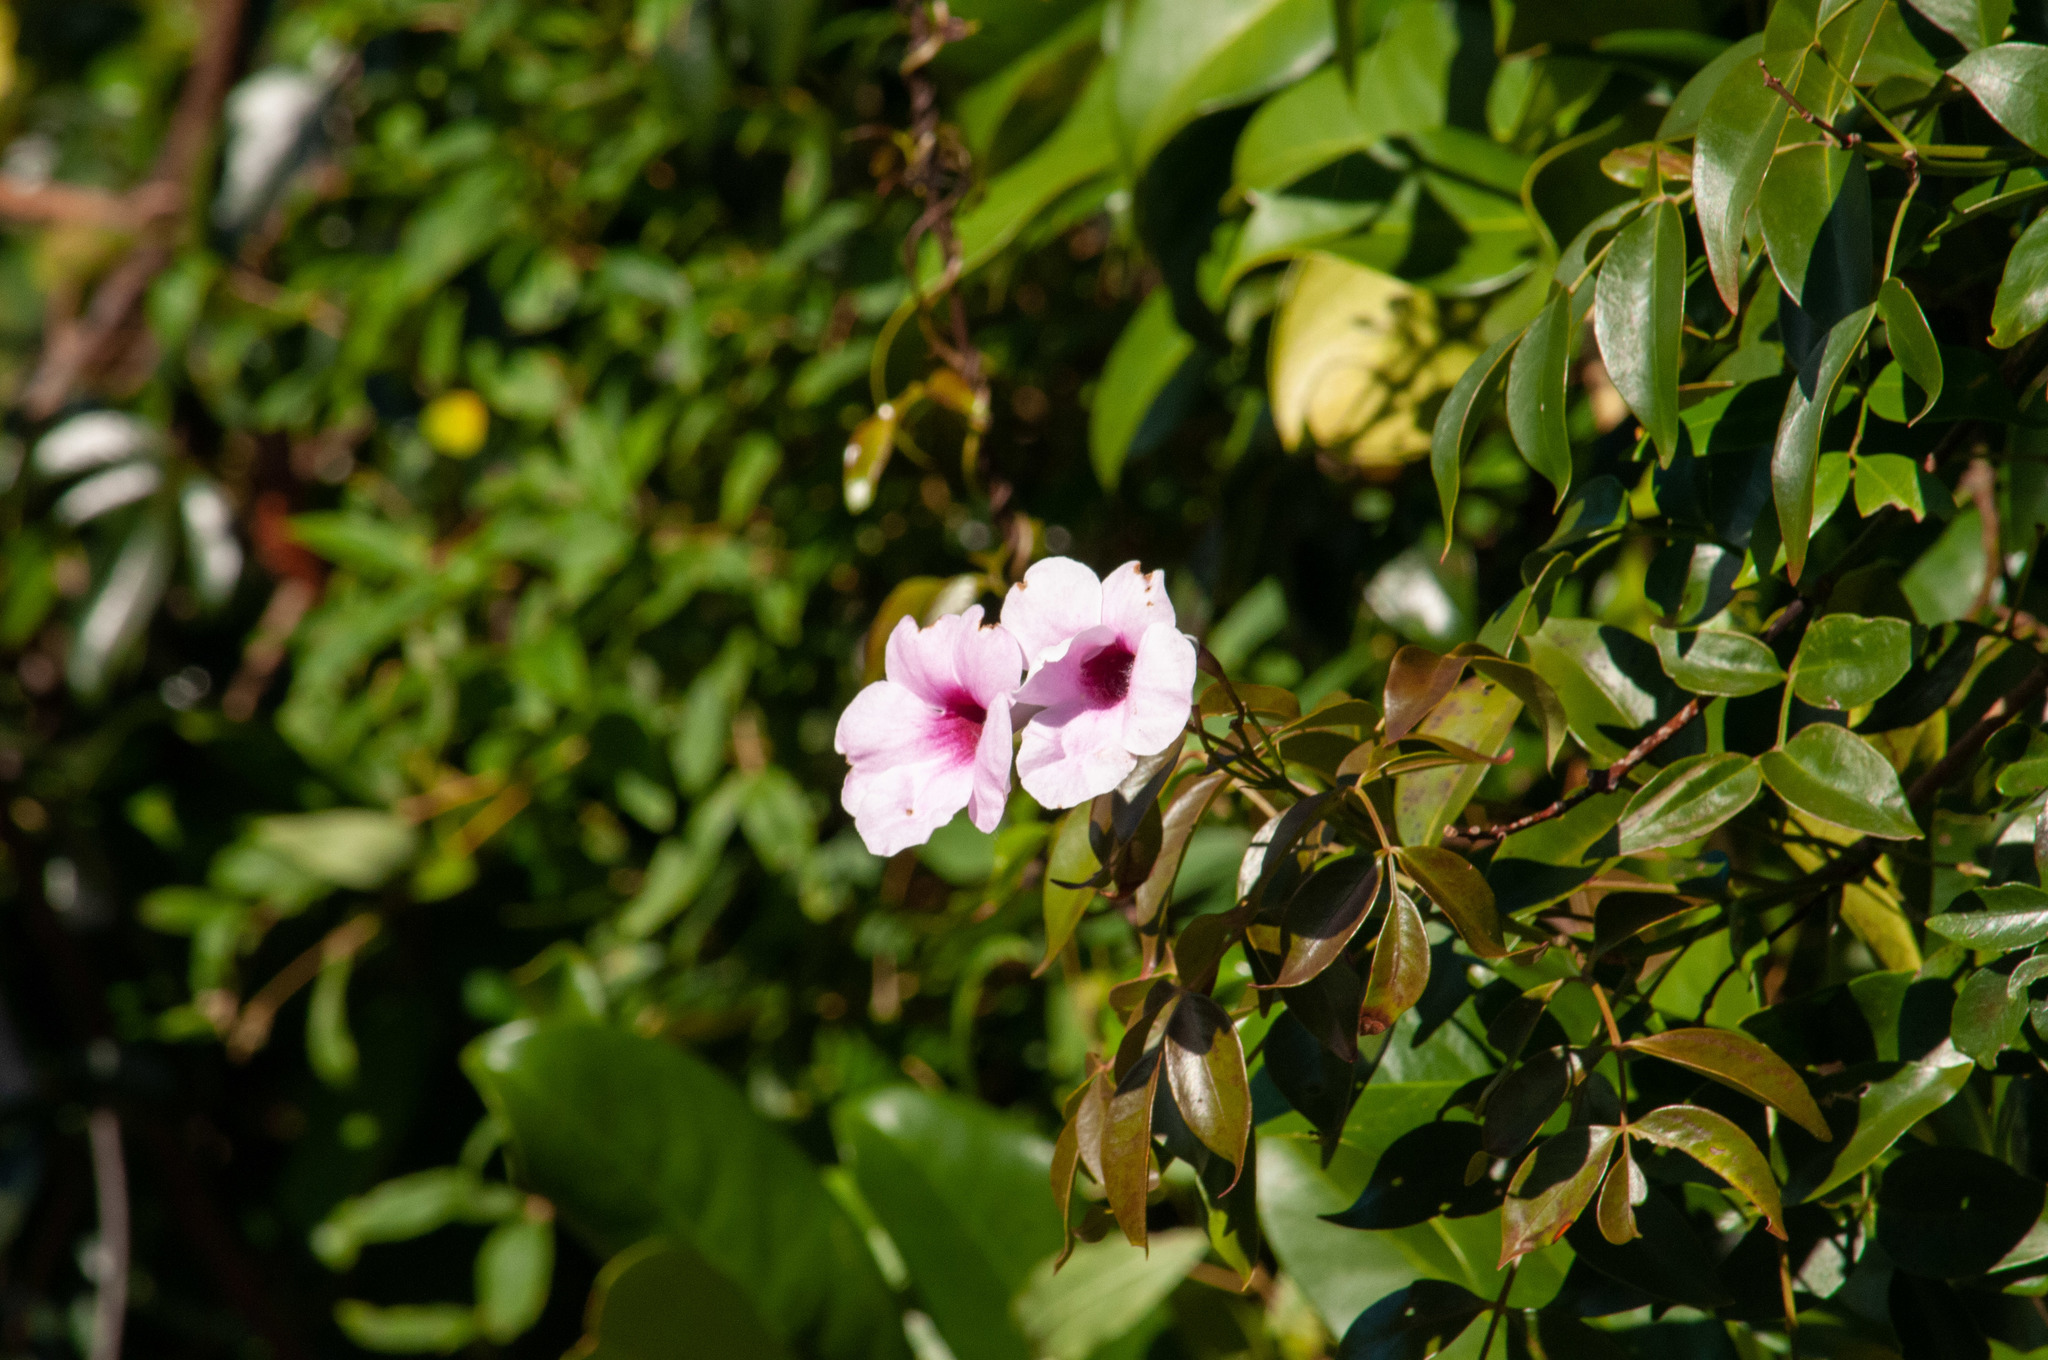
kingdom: Plantae
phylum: Tracheophyta
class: Magnoliopsida
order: Lamiales
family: Bignoniaceae
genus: Pandorea
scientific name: Pandorea jasminoides
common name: Bowerplant
